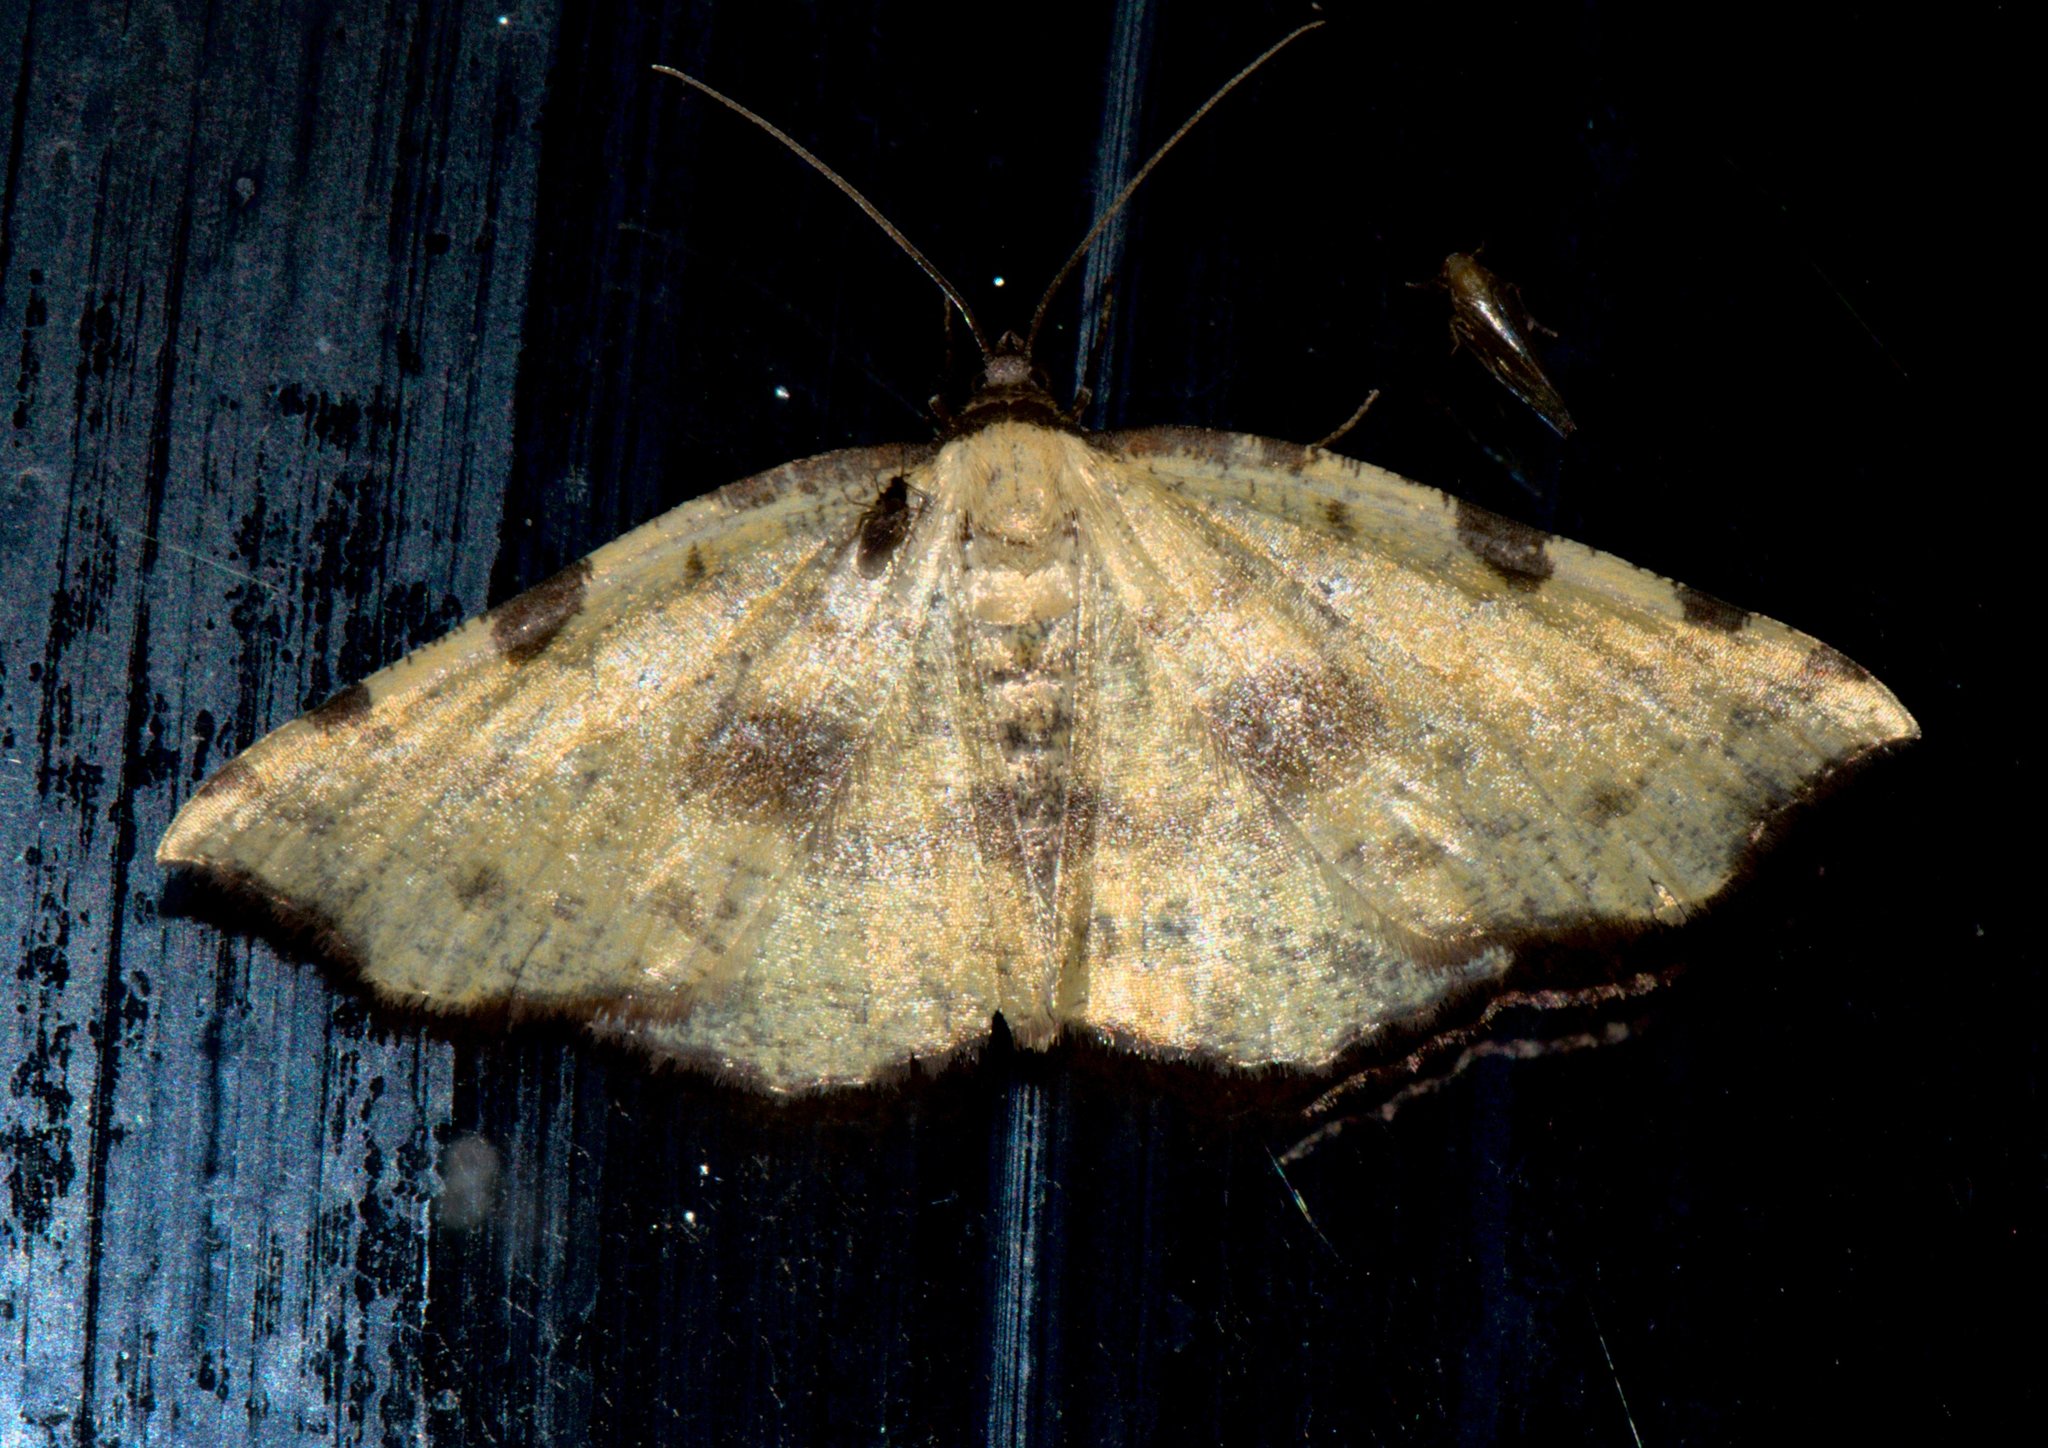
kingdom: Animalia
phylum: Arthropoda
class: Insecta
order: Lepidoptera
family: Geometridae
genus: Pseudopanthera
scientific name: Pseudopanthera himaleyica
